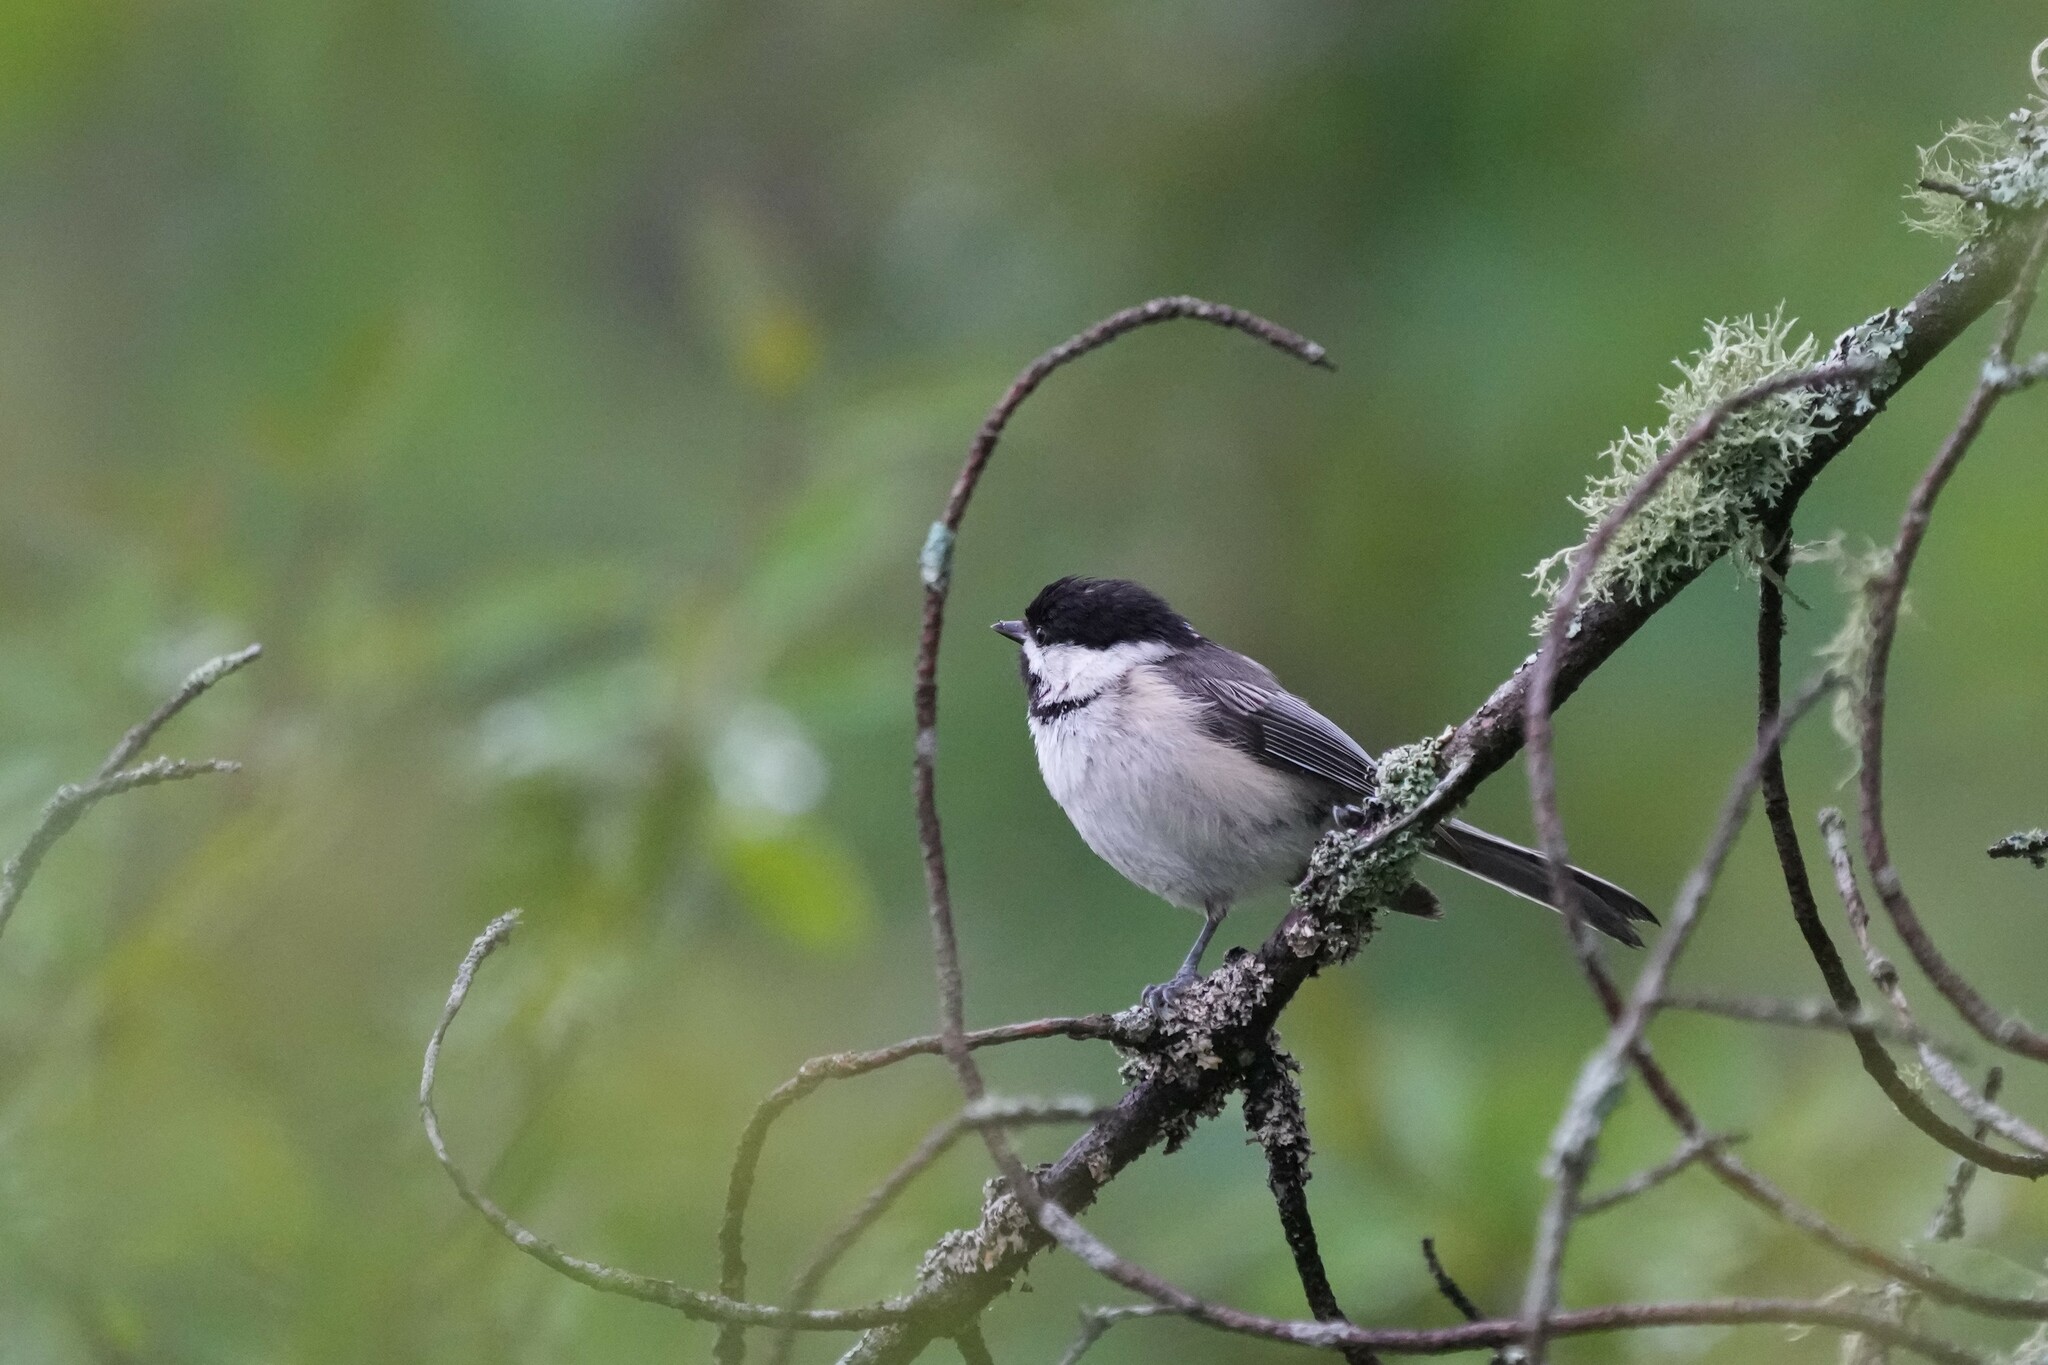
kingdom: Animalia
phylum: Chordata
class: Aves
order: Passeriformes
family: Paridae
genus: Poecile
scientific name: Poecile atricapillus
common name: Black-capped chickadee
